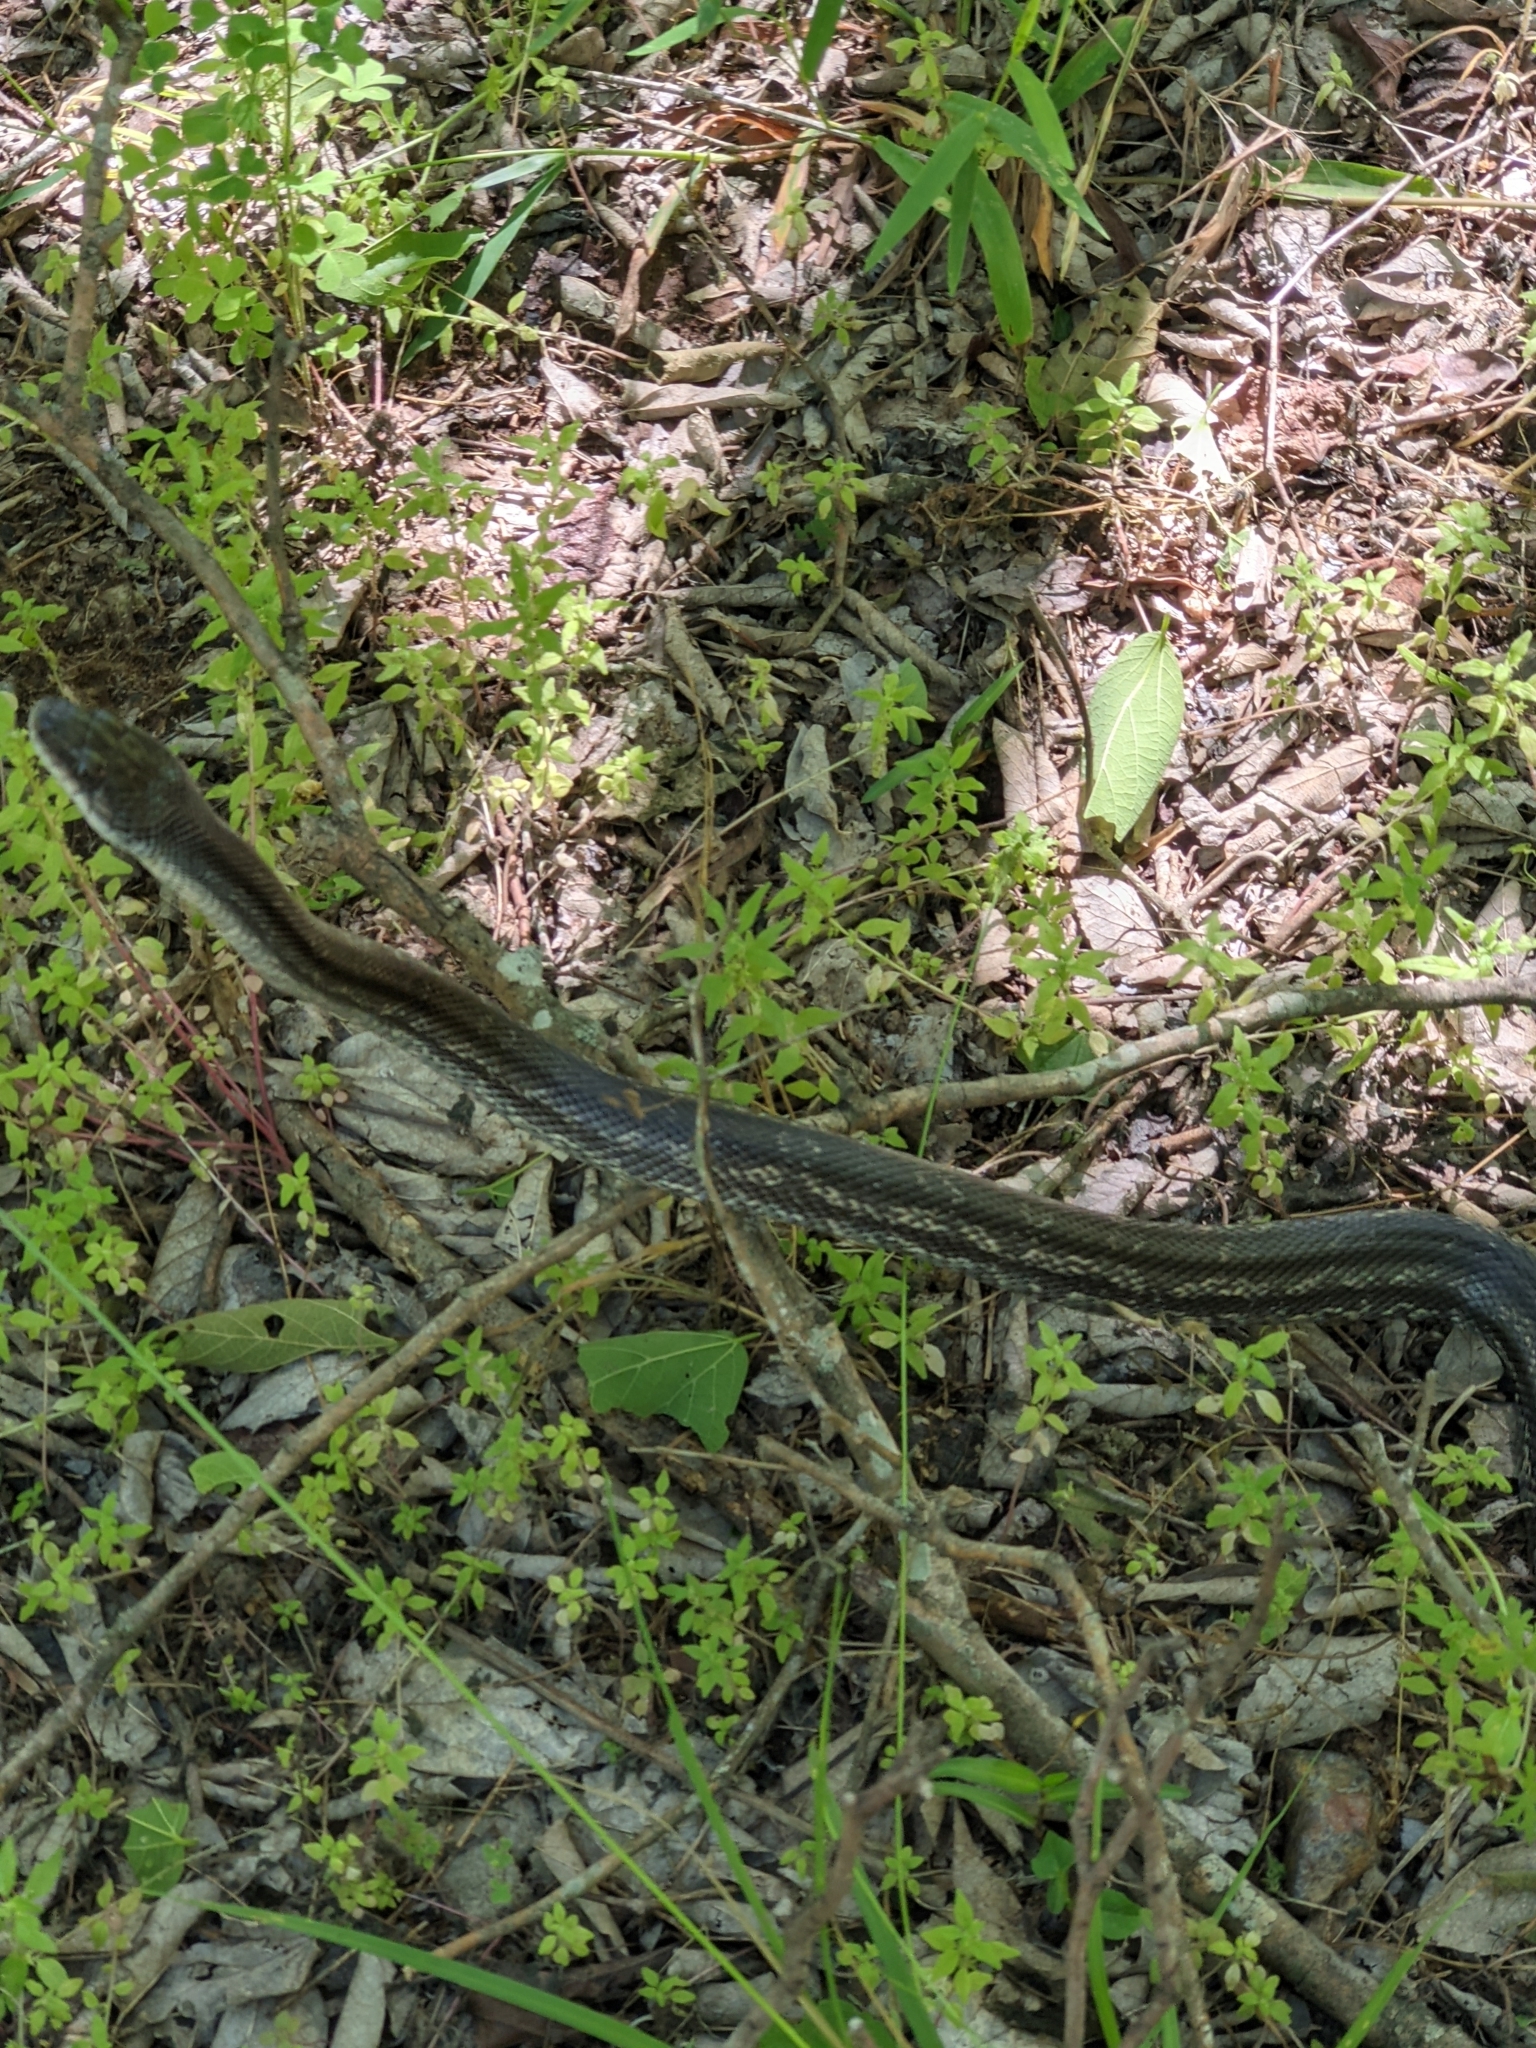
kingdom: Animalia
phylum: Chordata
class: Squamata
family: Colubridae
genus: Pantherophis
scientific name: Pantherophis obsoletus
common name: Black rat snake
